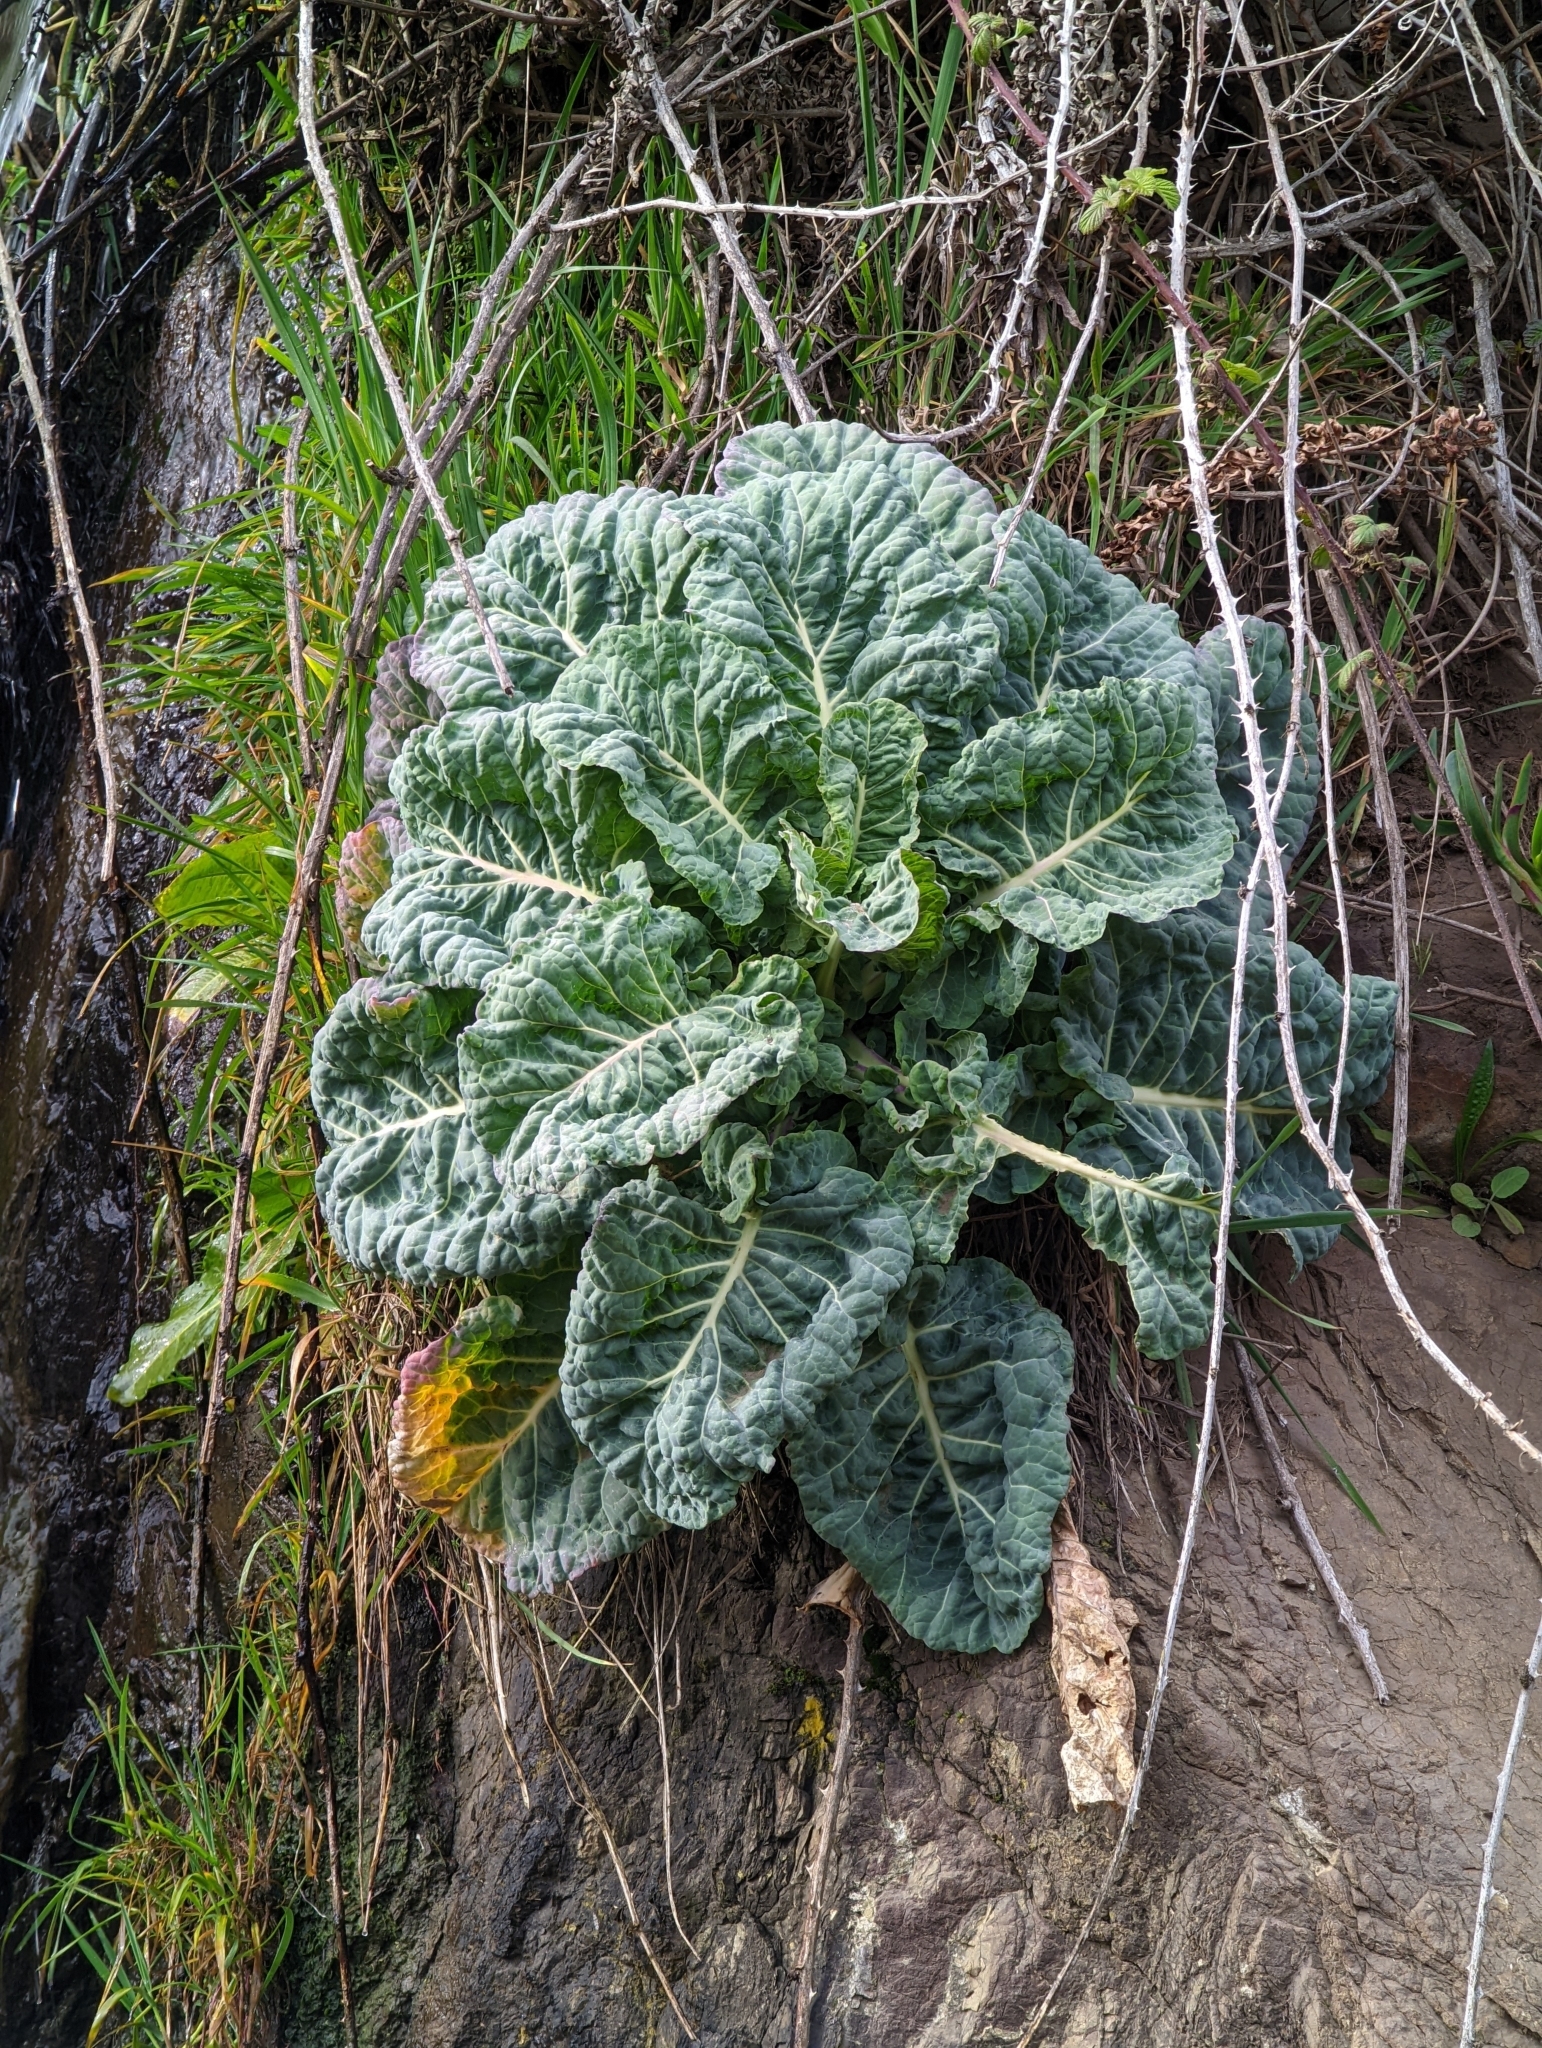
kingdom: Plantae
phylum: Tracheophyta
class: Magnoliopsida
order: Brassicales
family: Brassicaceae
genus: Brassica
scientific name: Brassica oleracea
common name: Cabbage
